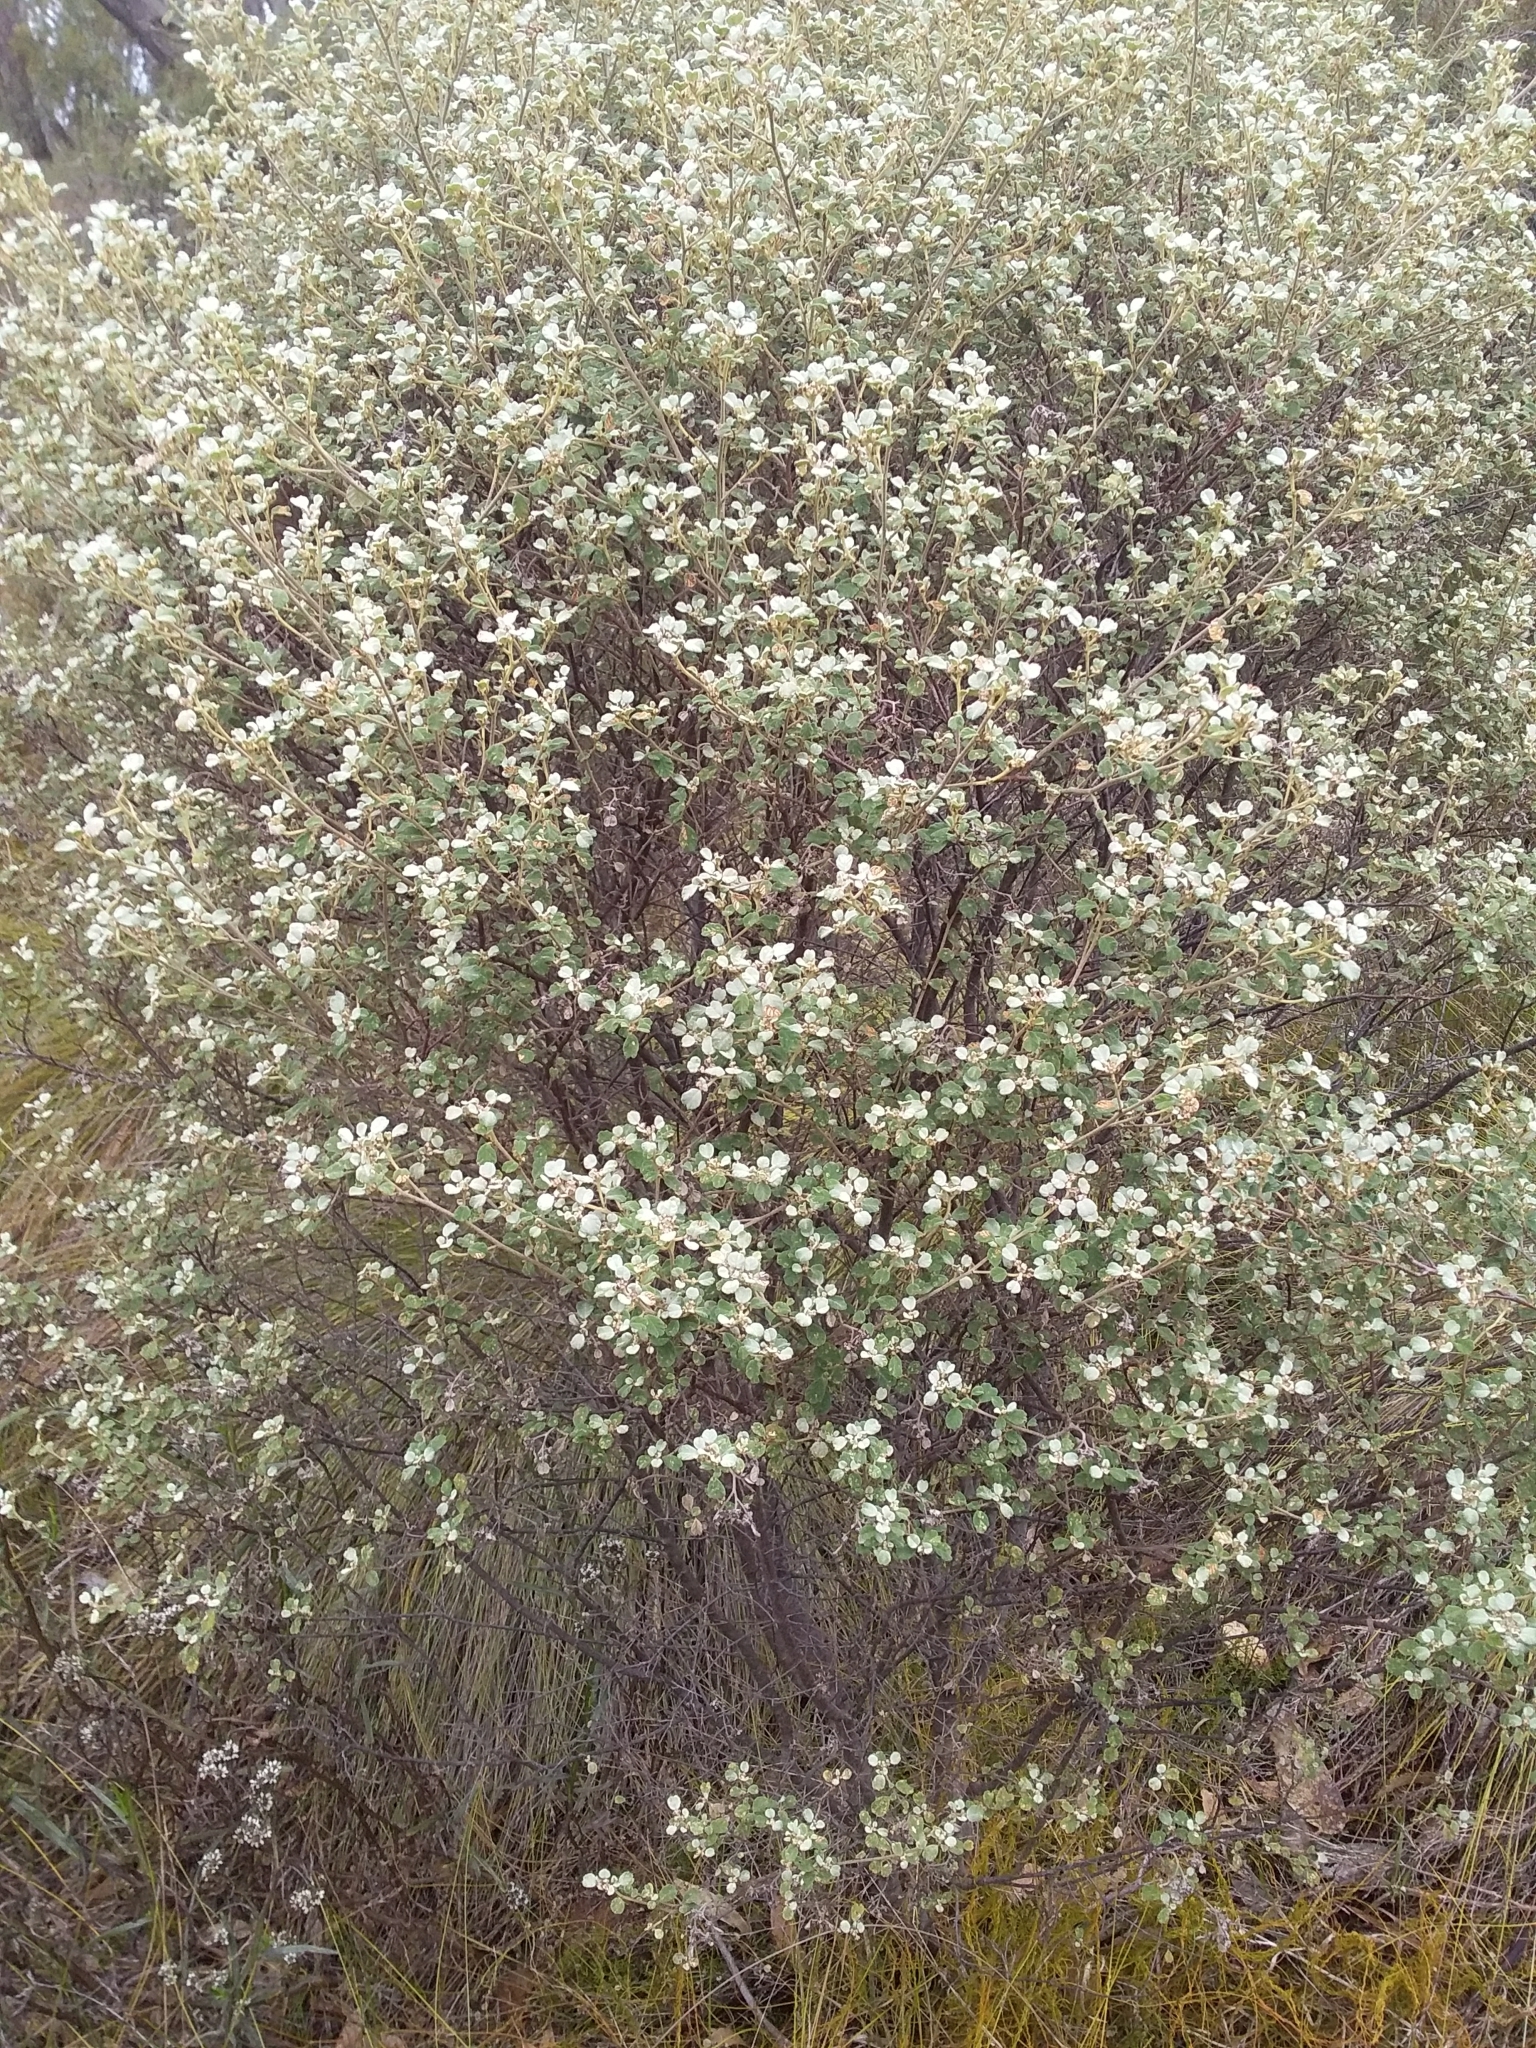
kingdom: Plantae
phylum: Tracheophyta
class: Magnoliopsida
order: Rosales
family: Rhamnaceae
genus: Spyridium
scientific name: Spyridium parvifolium
